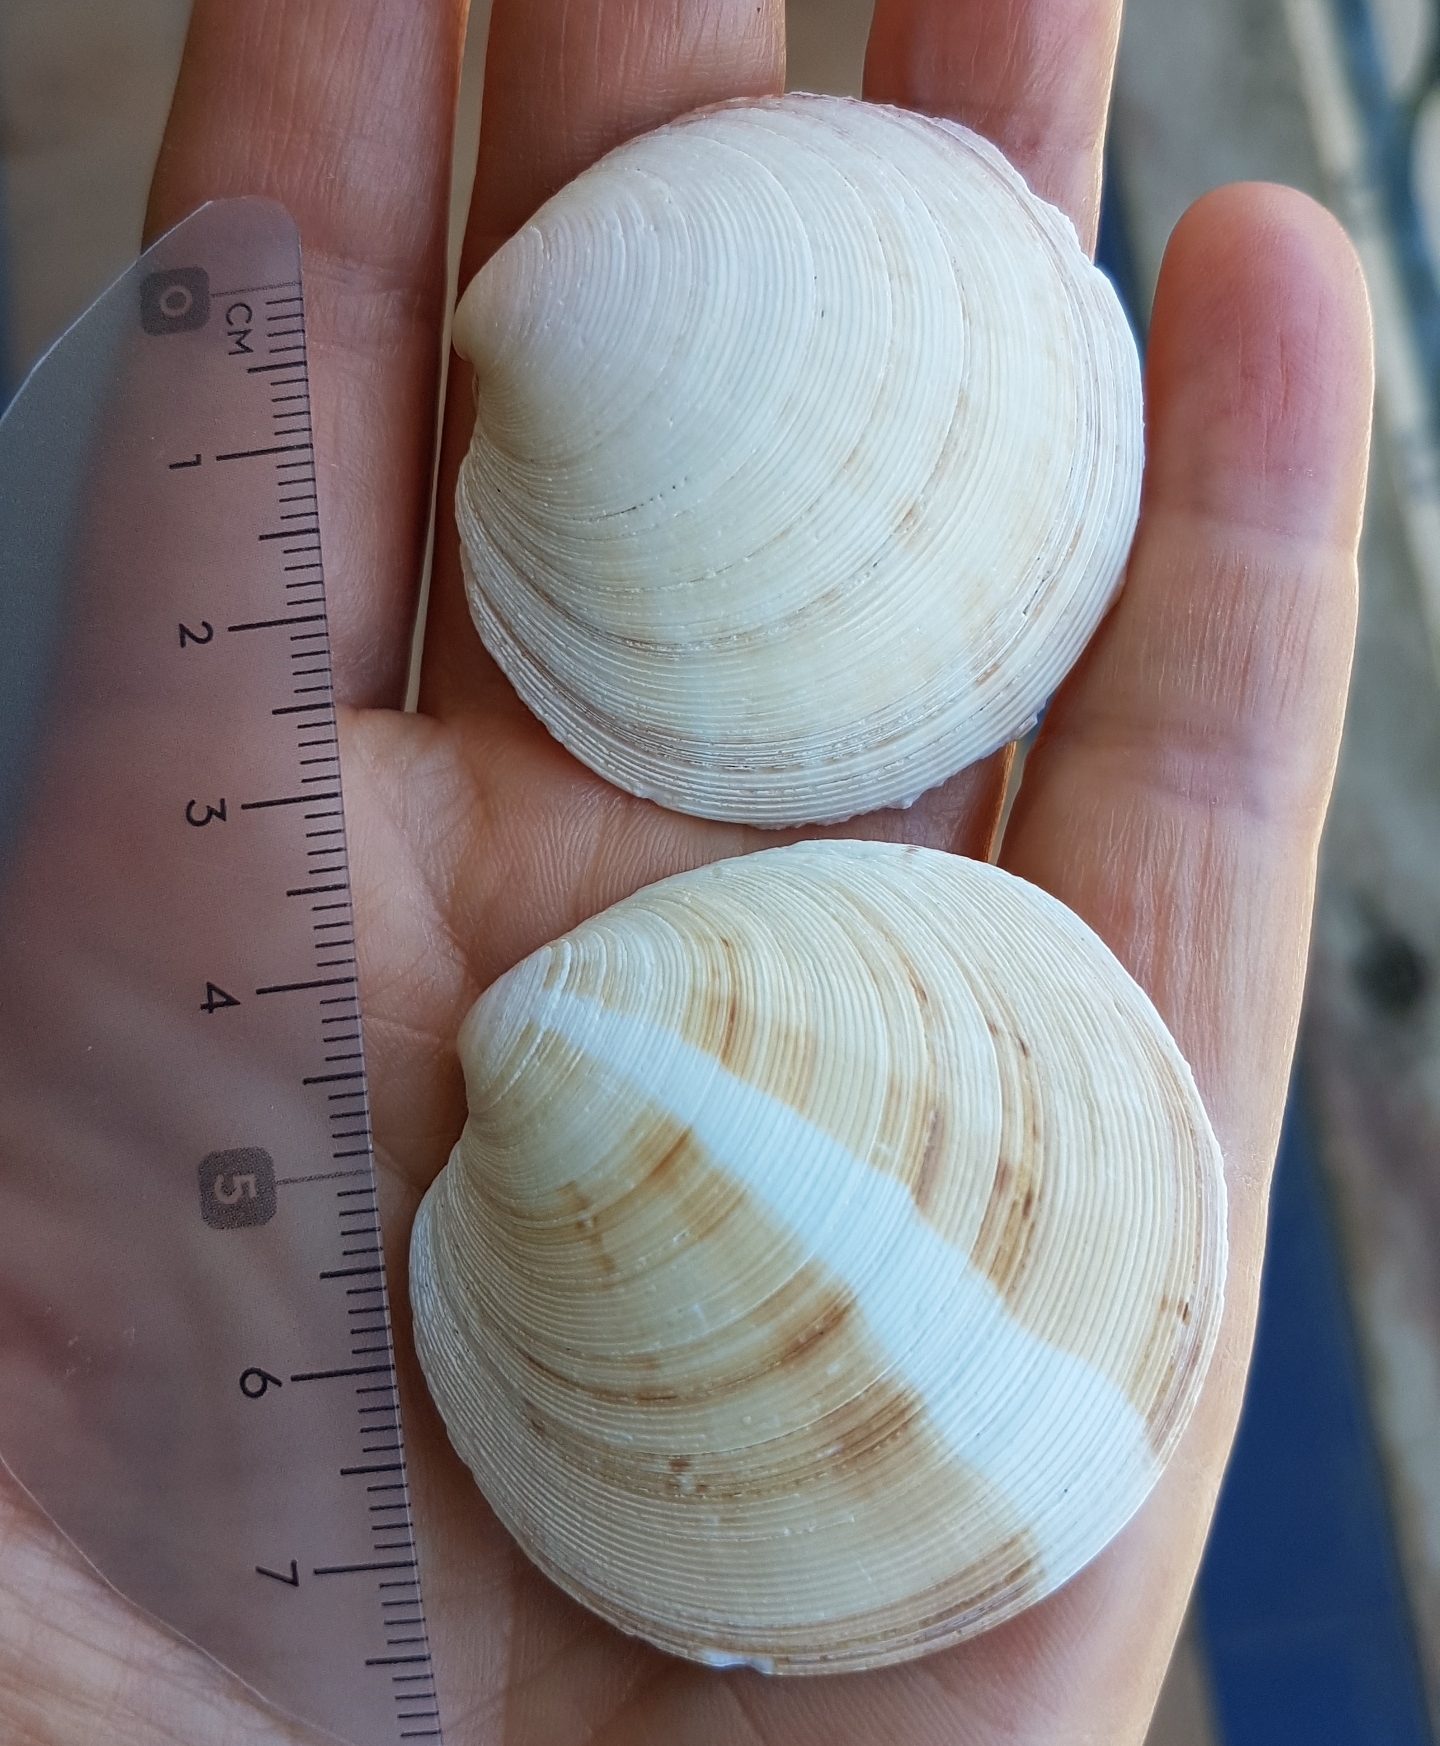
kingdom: Animalia
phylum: Mollusca
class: Bivalvia
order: Venerida
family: Veneridae
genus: Dosinia
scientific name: Dosinia exoleta
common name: Rayed artemis
